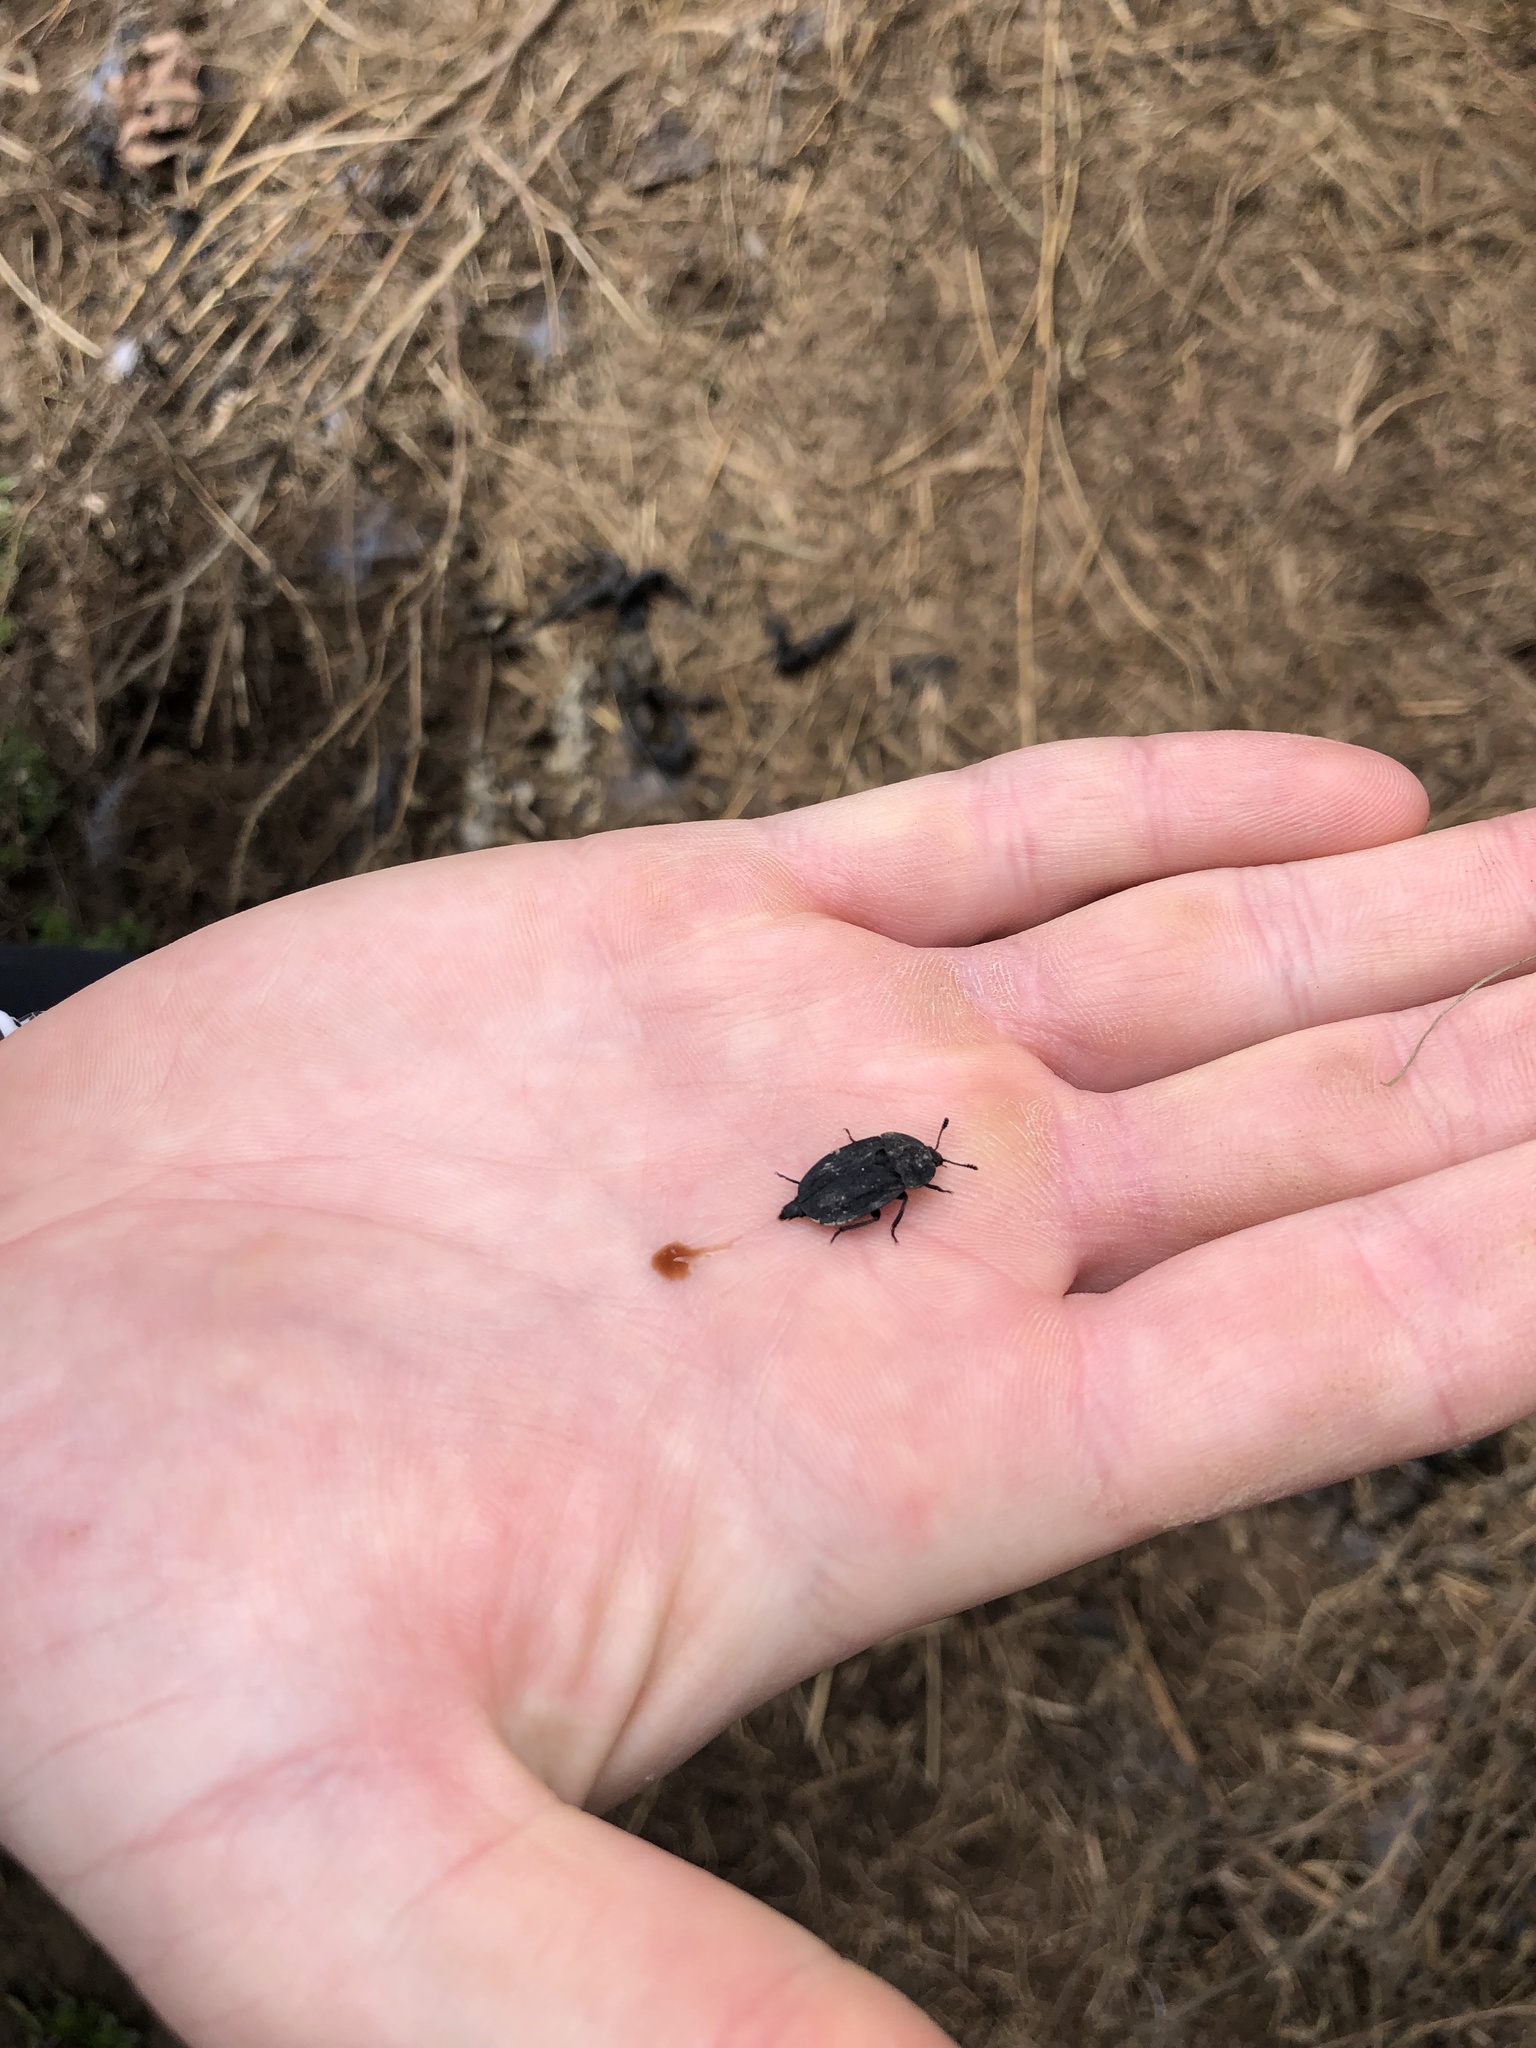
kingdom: Animalia
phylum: Arthropoda
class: Insecta
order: Coleoptera
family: Staphylinidae
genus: Oiceoptoma
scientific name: Oiceoptoma inaequale
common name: Ridged carrion beetle
